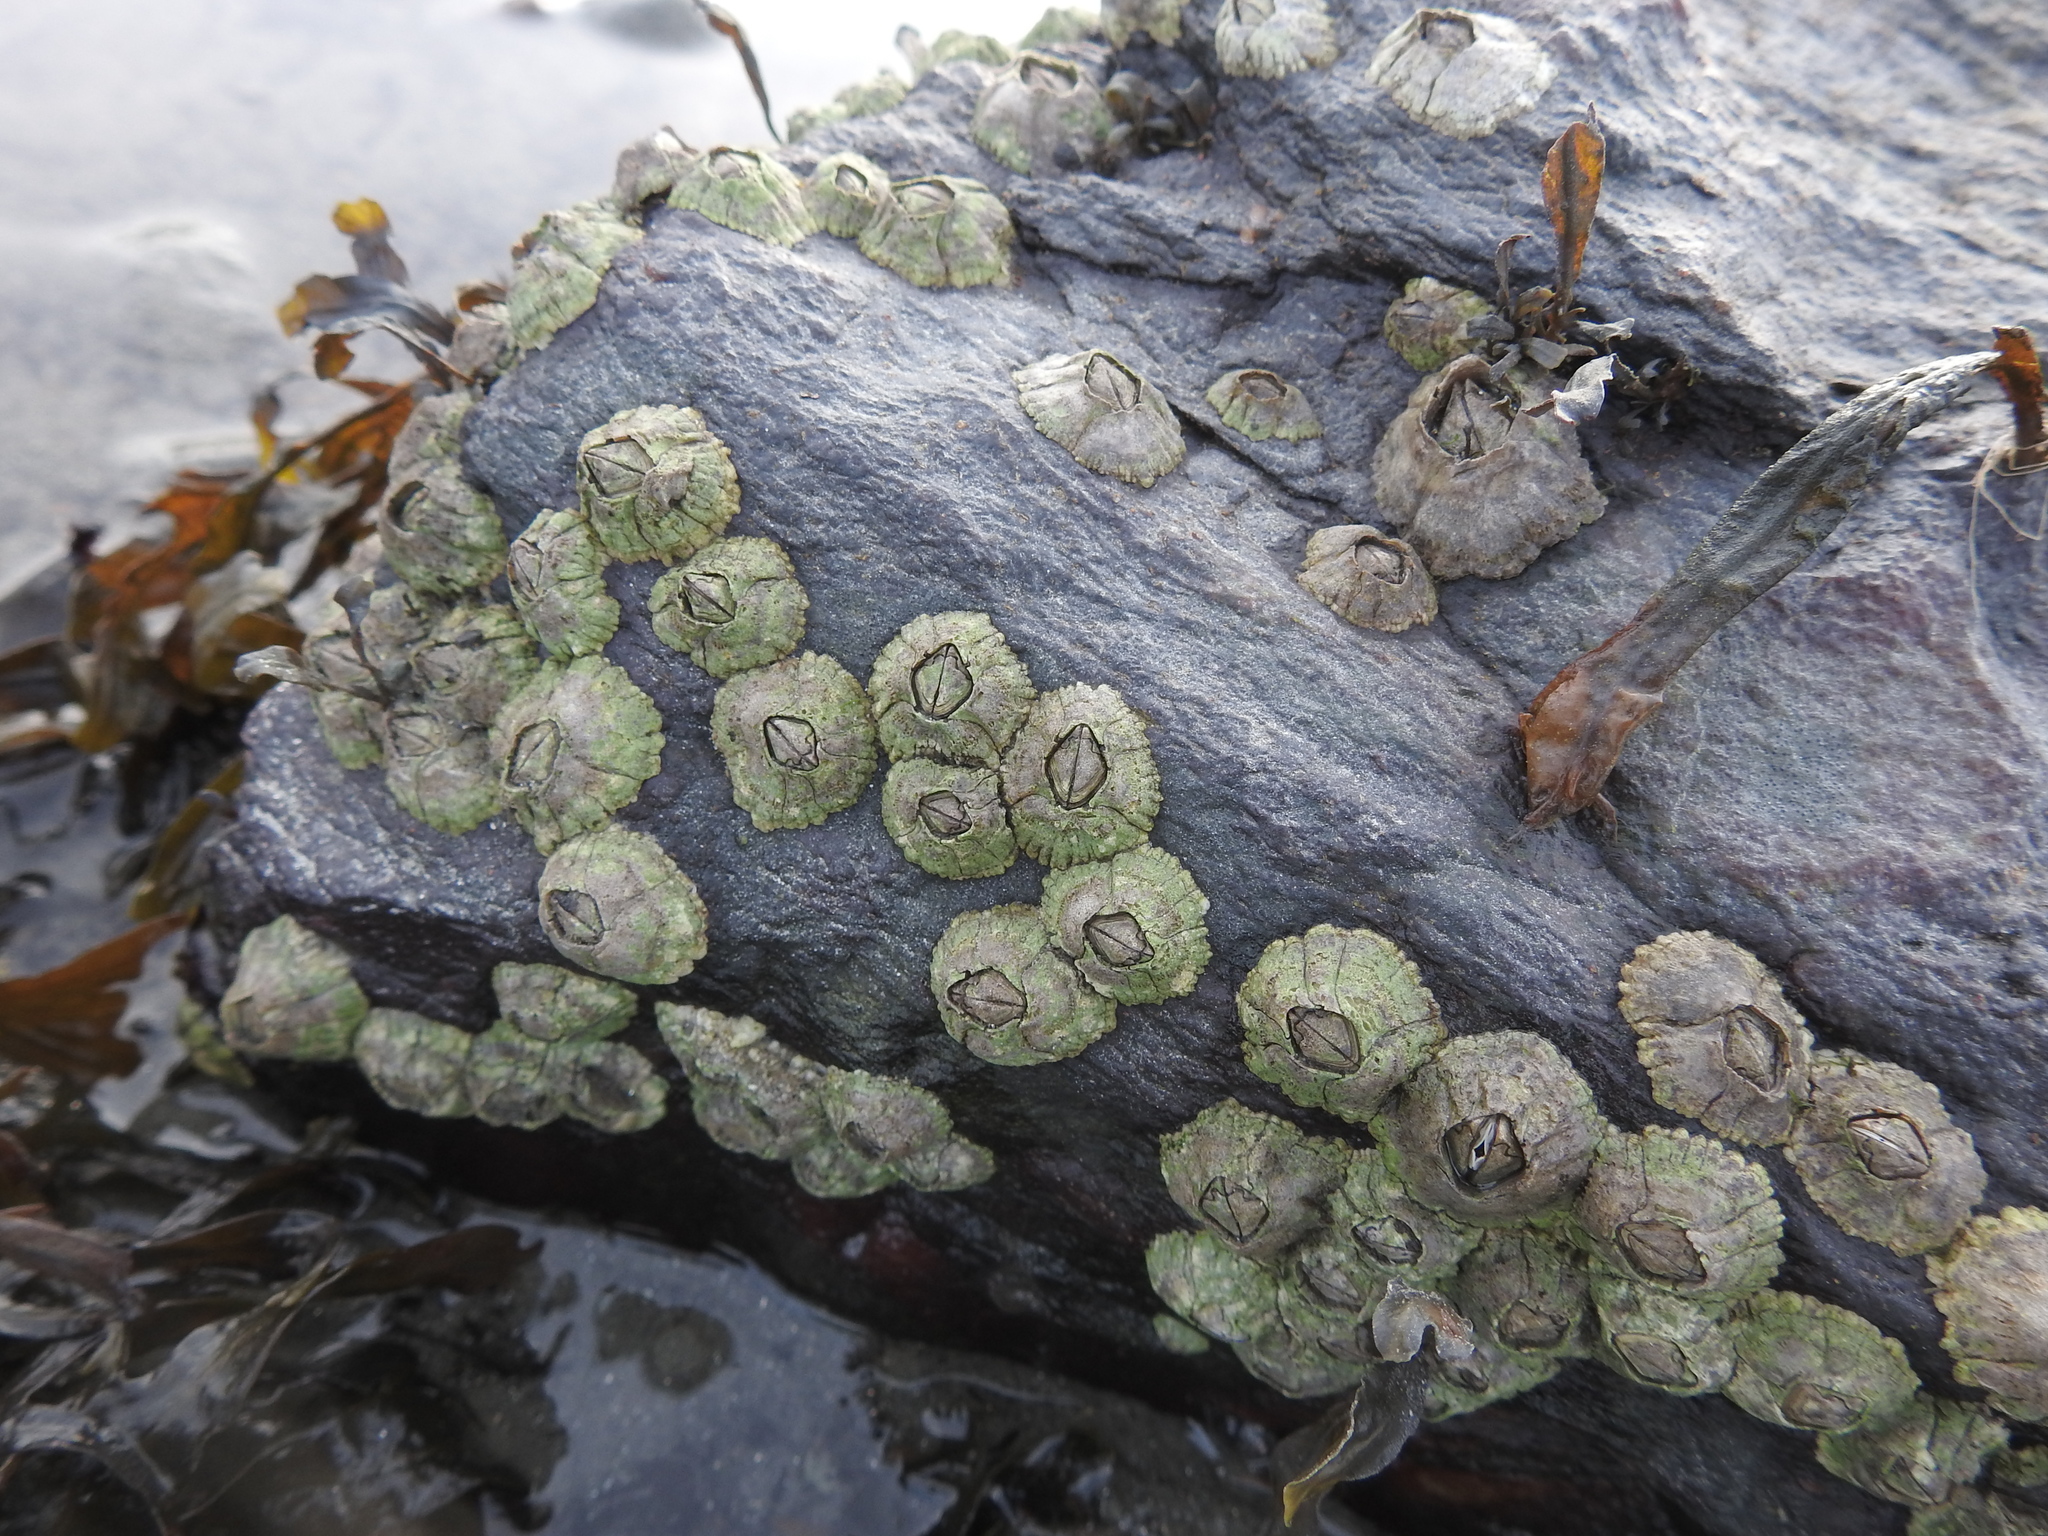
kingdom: Animalia
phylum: Arthropoda
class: Maxillopoda
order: Sessilia
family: Archaeobalanidae
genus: Semibalanus
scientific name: Semibalanus balanoides
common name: Acorn barnacle
